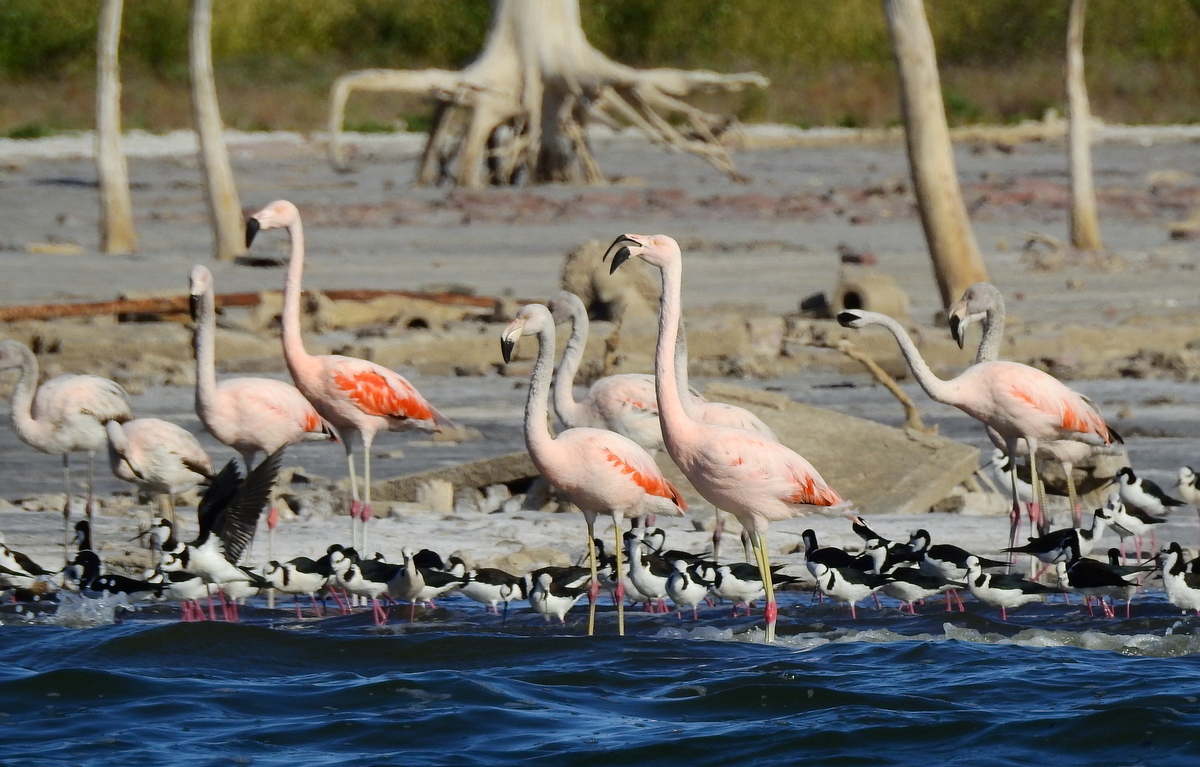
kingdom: Animalia
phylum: Chordata
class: Aves
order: Phoenicopteriformes
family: Phoenicopteridae
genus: Phoenicopterus
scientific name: Phoenicopterus chilensis
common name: Chilean flamingo
